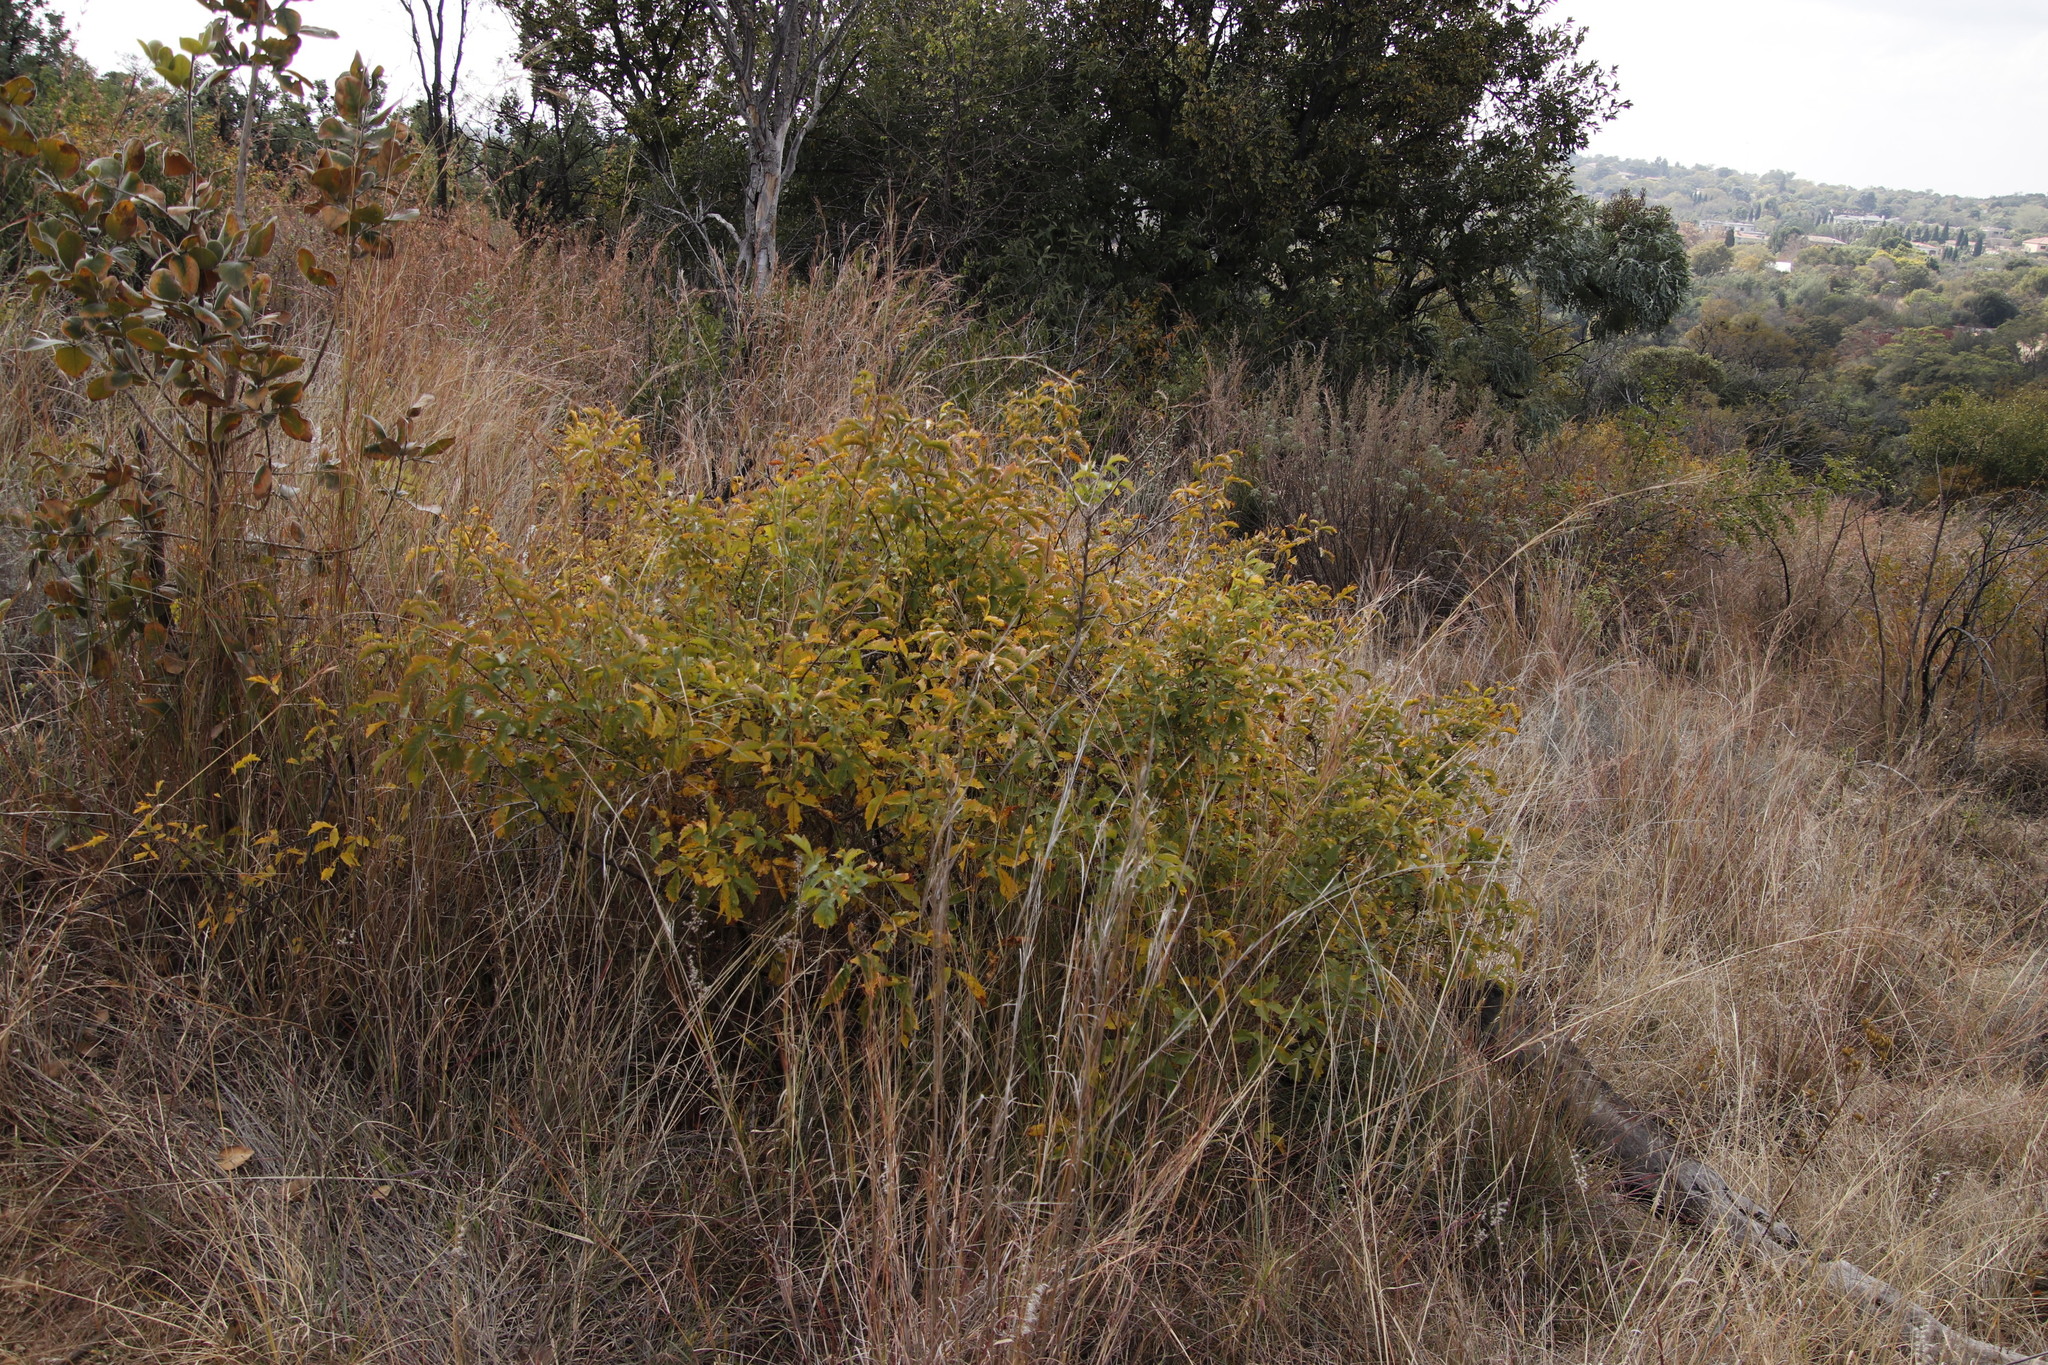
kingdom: Plantae
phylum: Tracheophyta
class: Magnoliopsida
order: Sapindales
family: Anacardiaceae
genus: Searsia
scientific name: Searsia dentata
